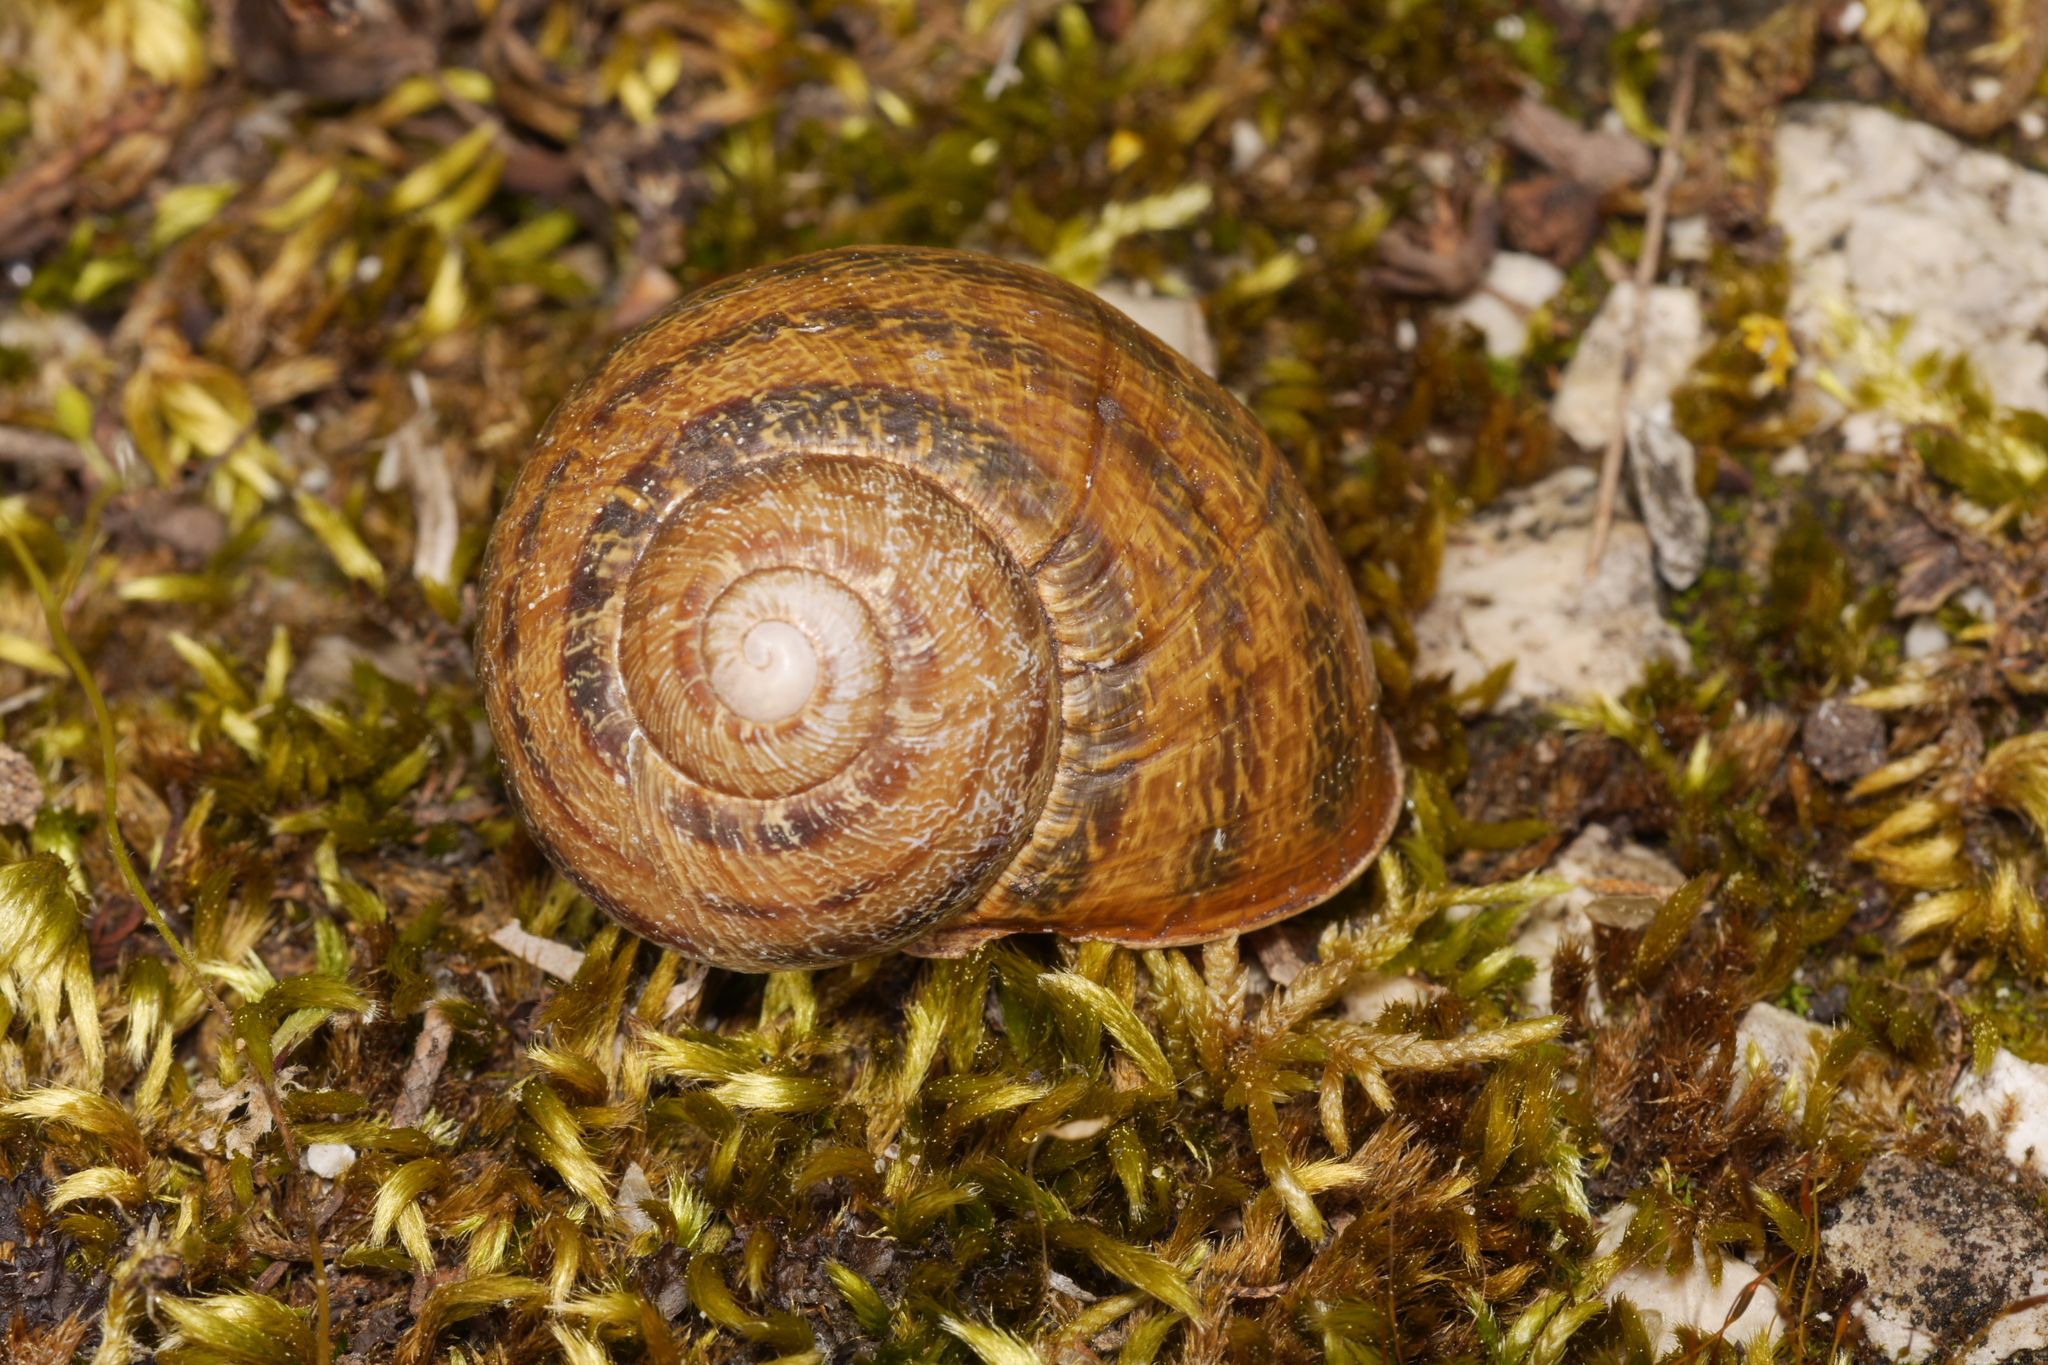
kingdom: Animalia
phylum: Mollusca
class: Gastropoda
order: Stylommatophora
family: Helicidae
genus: Cornu
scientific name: Cornu aspersum
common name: Brown garden snail
